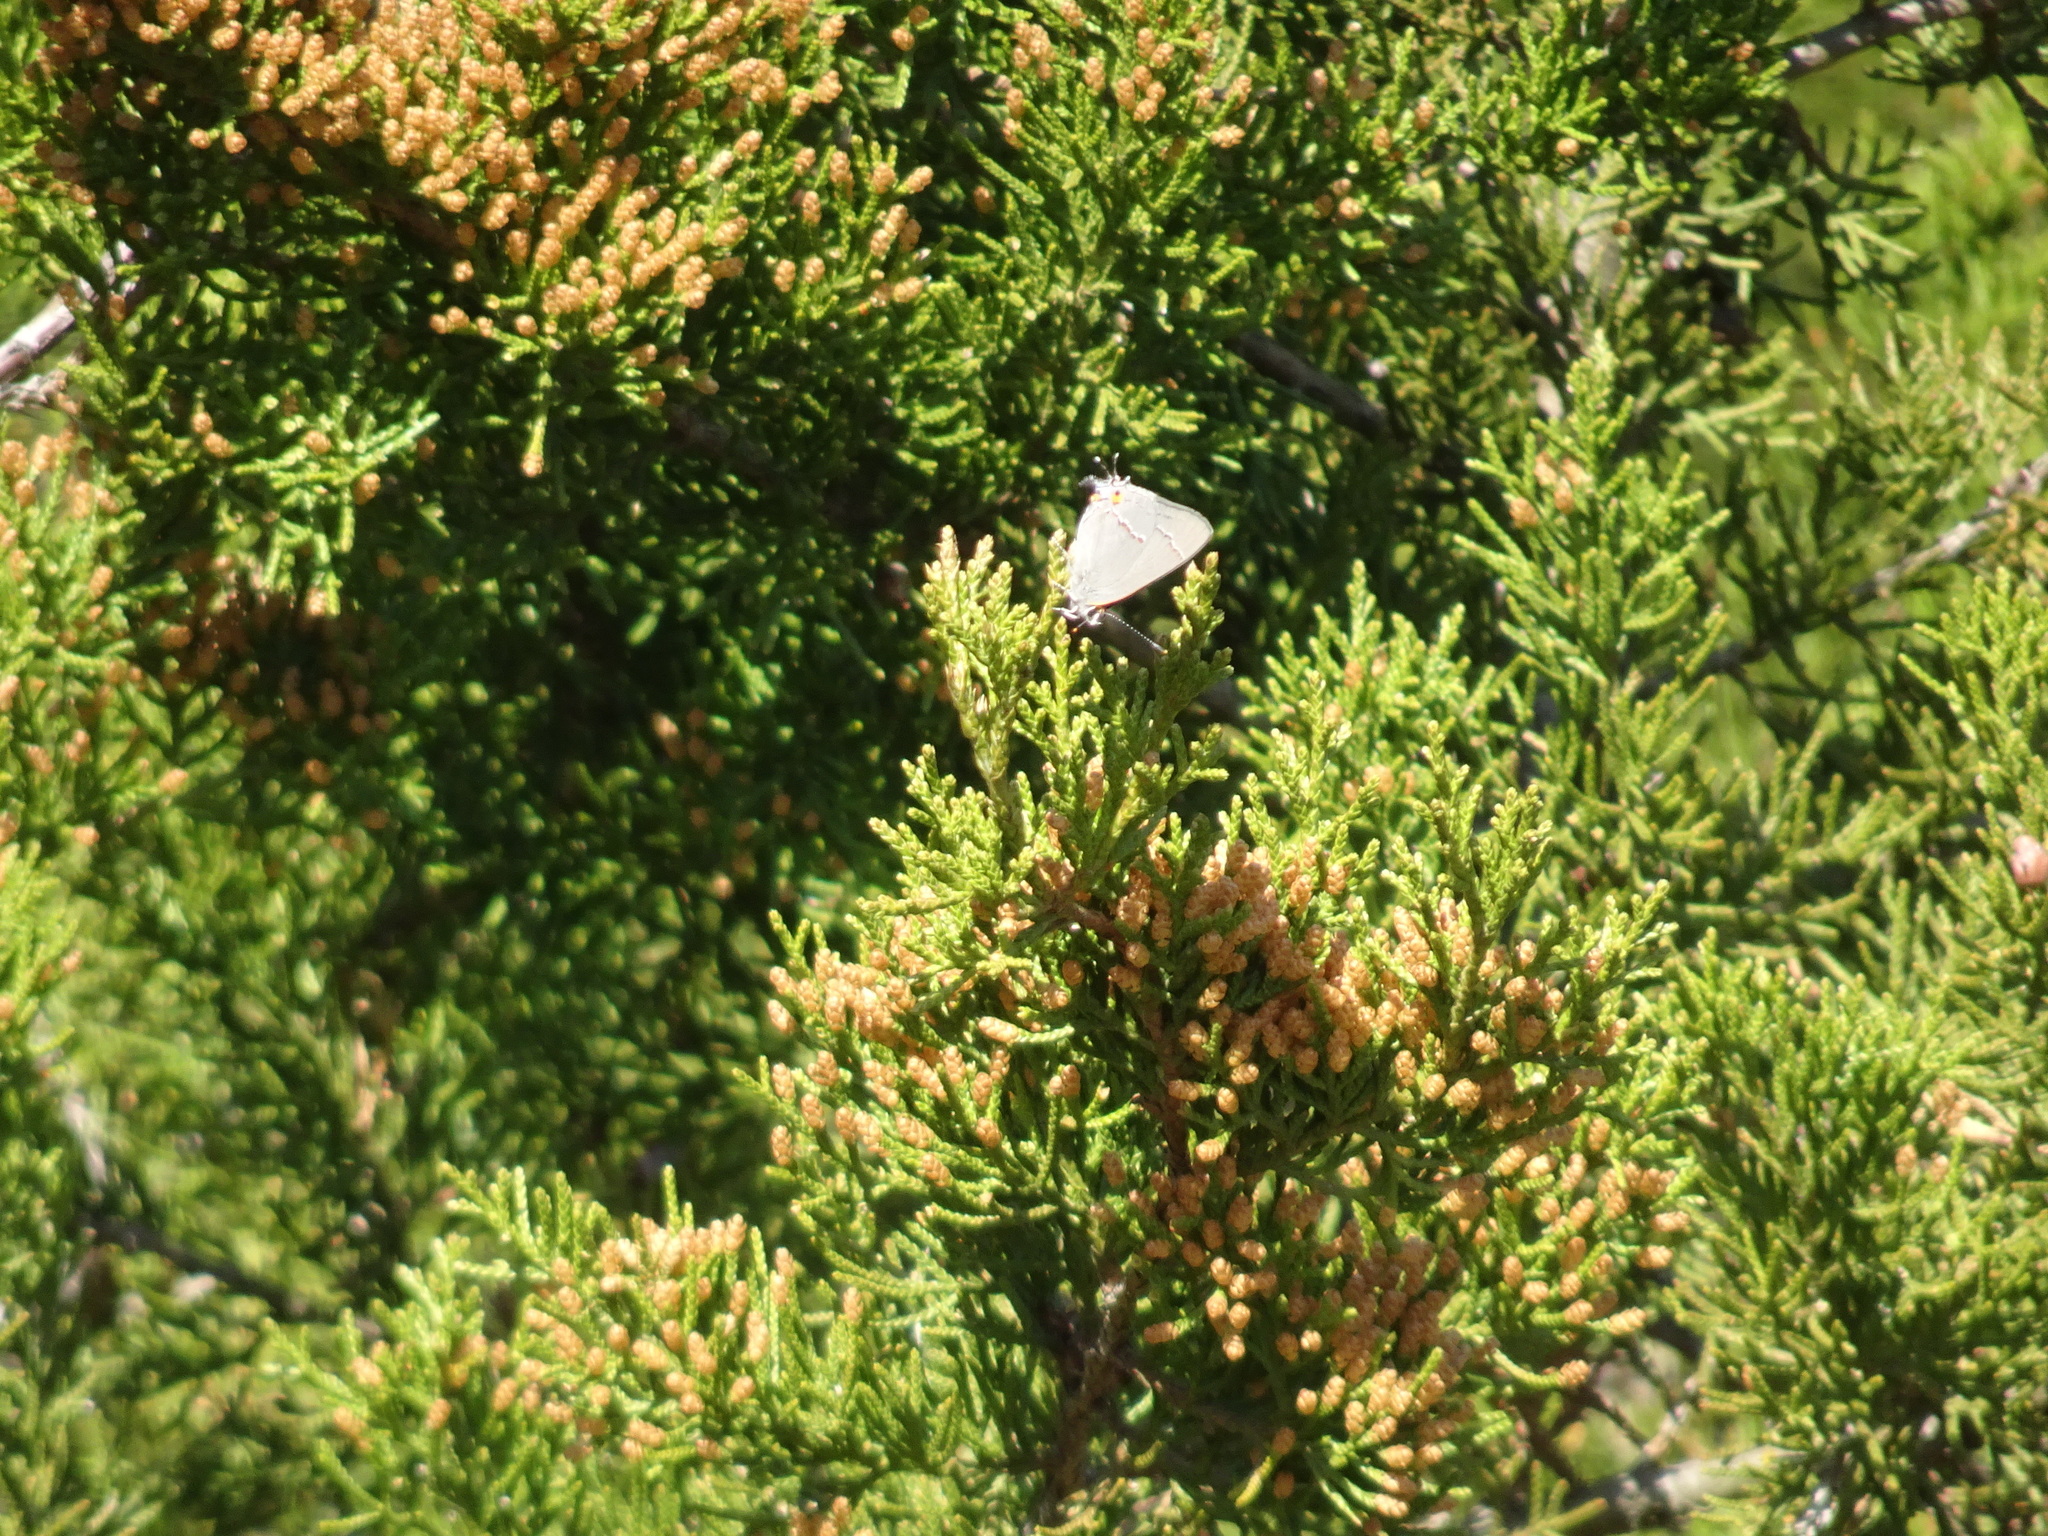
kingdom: Animalia
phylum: Arthropoda
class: Insecta
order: Lepidoptera
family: Lycaenidae
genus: Strymon
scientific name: Strymon melinus
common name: Gray hairstreak
